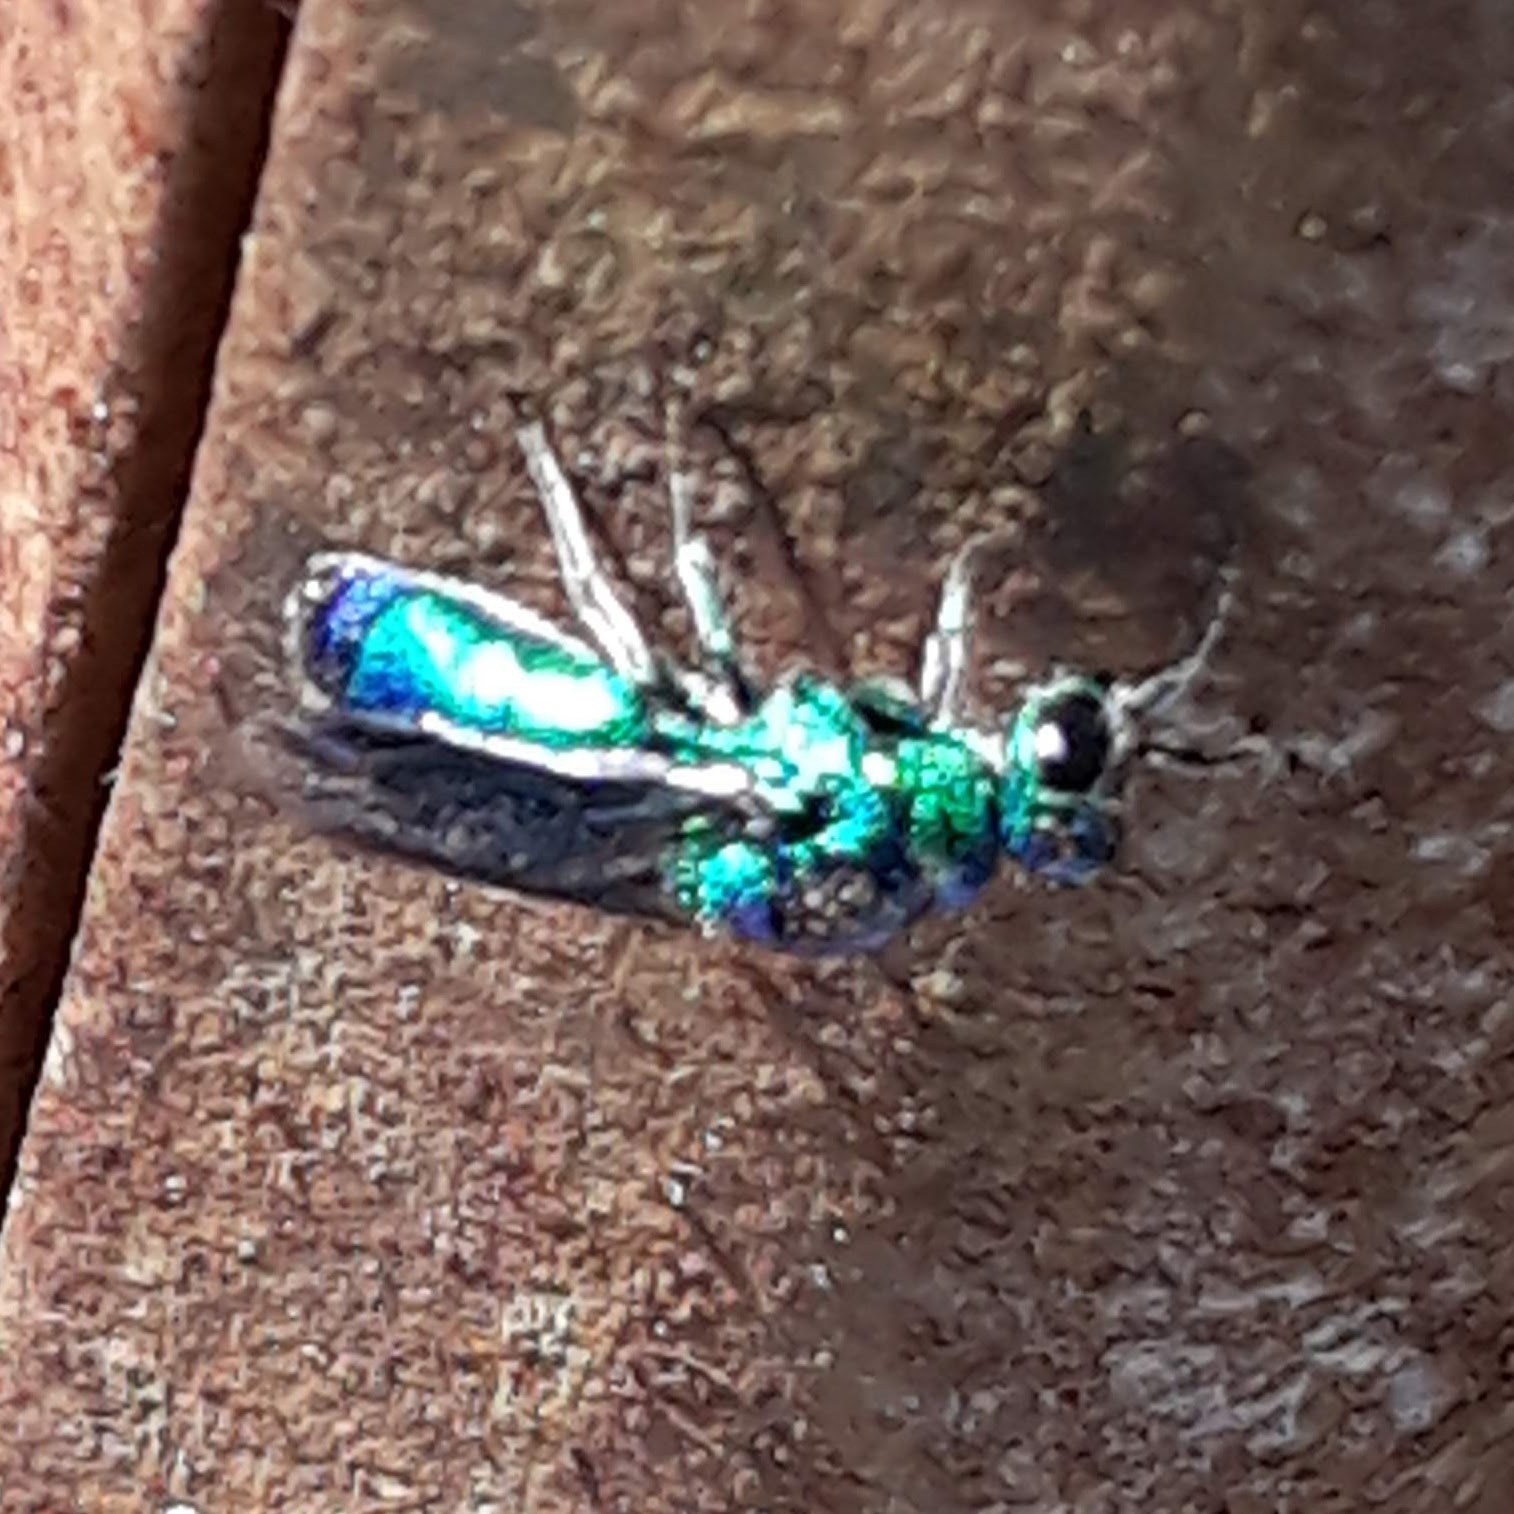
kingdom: Animalia
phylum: Arthropoda
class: Insecta
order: Hymenoptera
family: Chrysididae
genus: Chrysis
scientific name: Chrysis angolensis
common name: Cuckoo wasp
